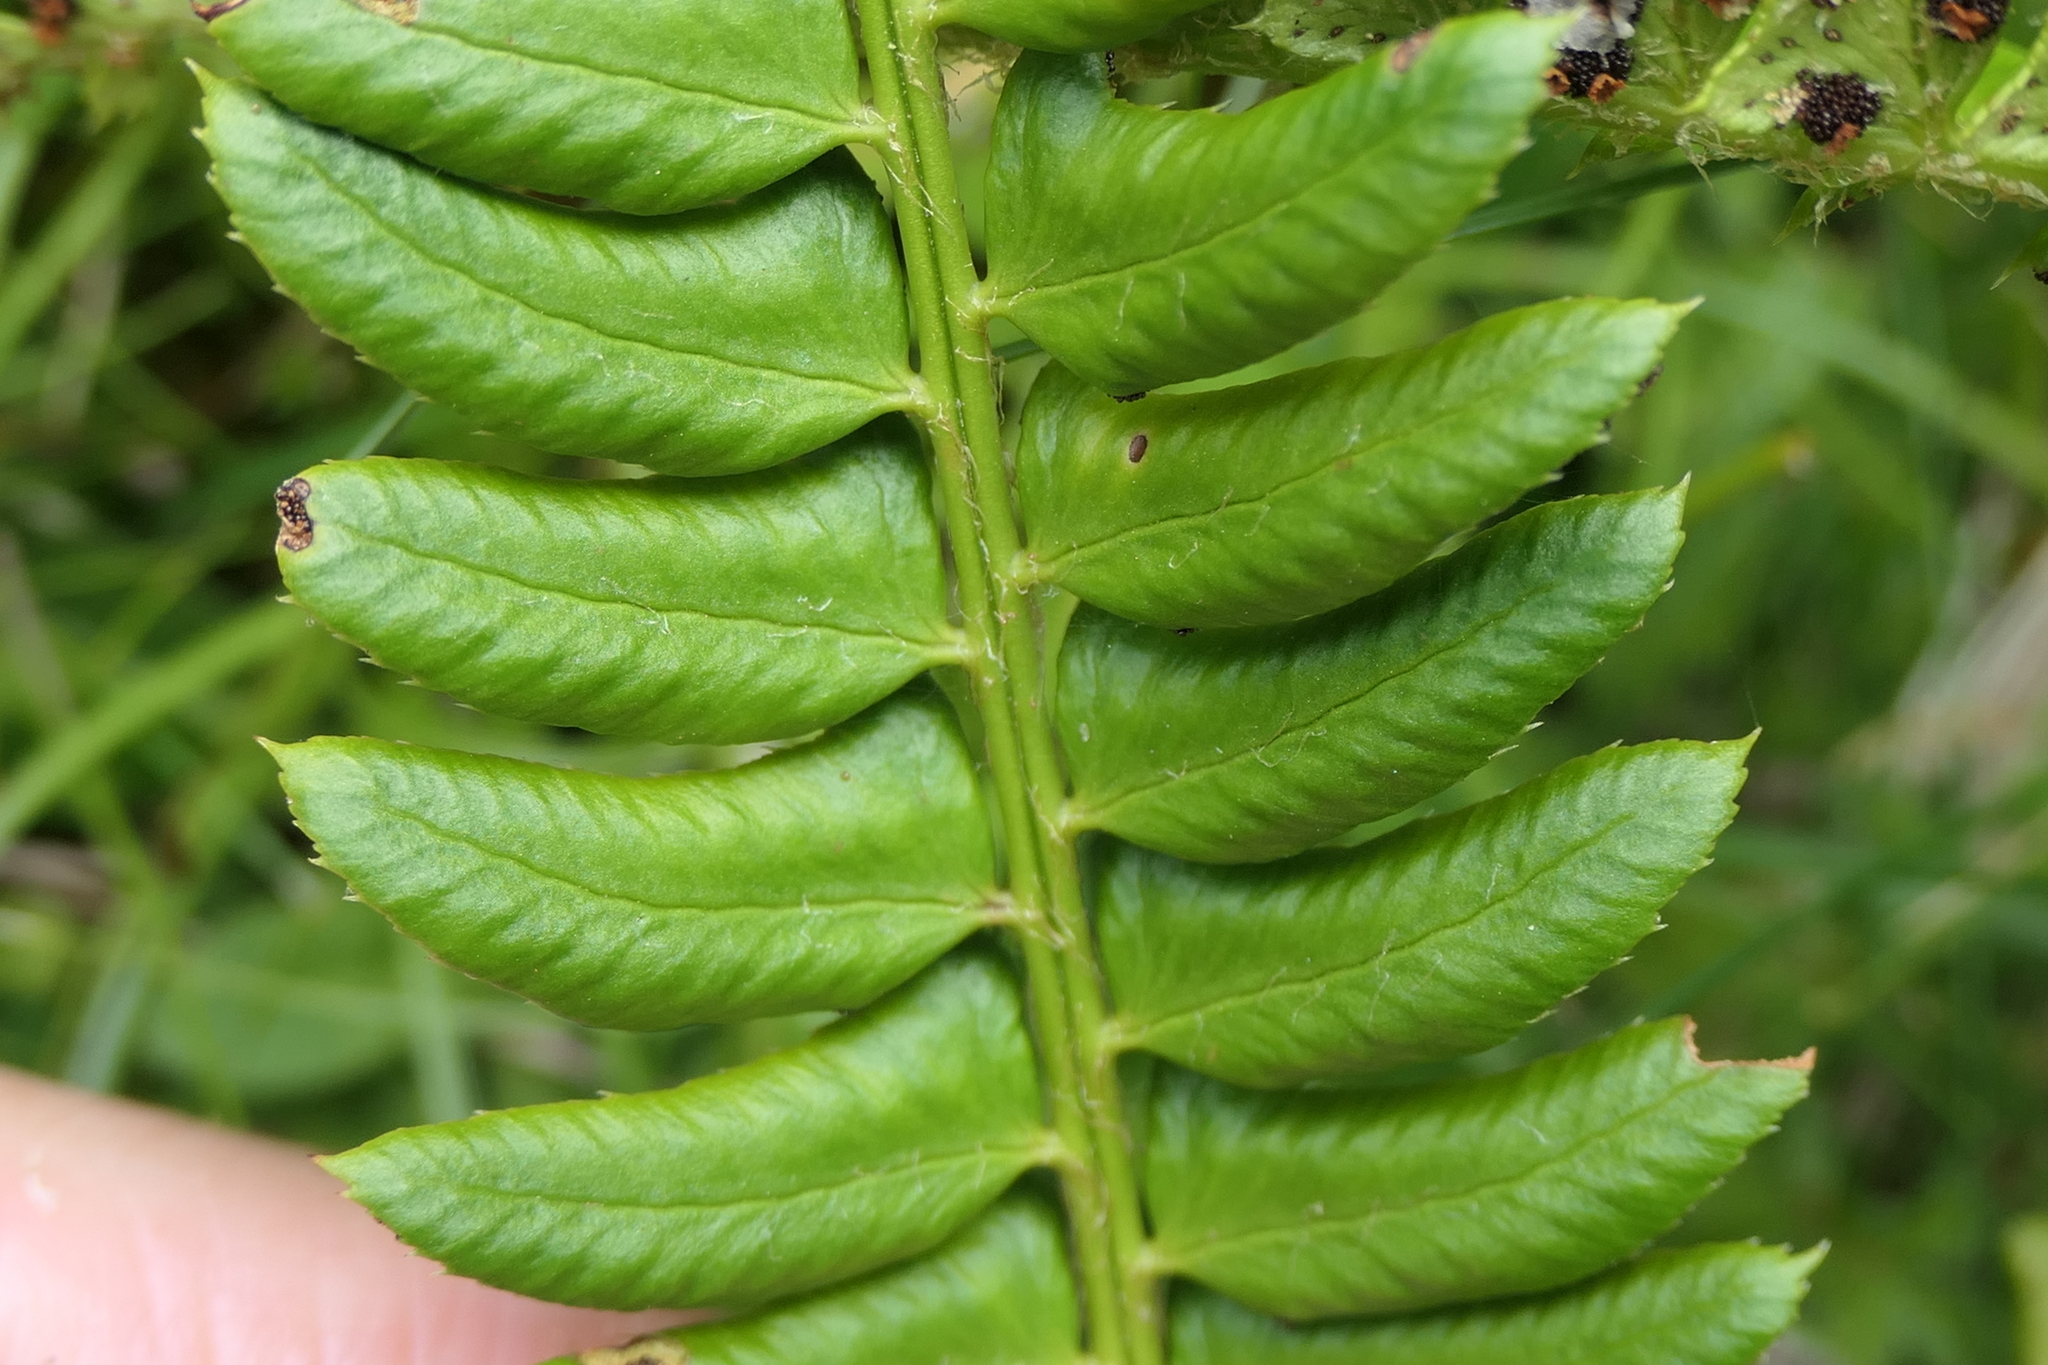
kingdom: Plantae
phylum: Tracheophyta
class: Polypodiopsida
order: Polypodiales
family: Dryopteridaceae
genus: Polystichum
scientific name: Polystichum lonchitis
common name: Holly fern
